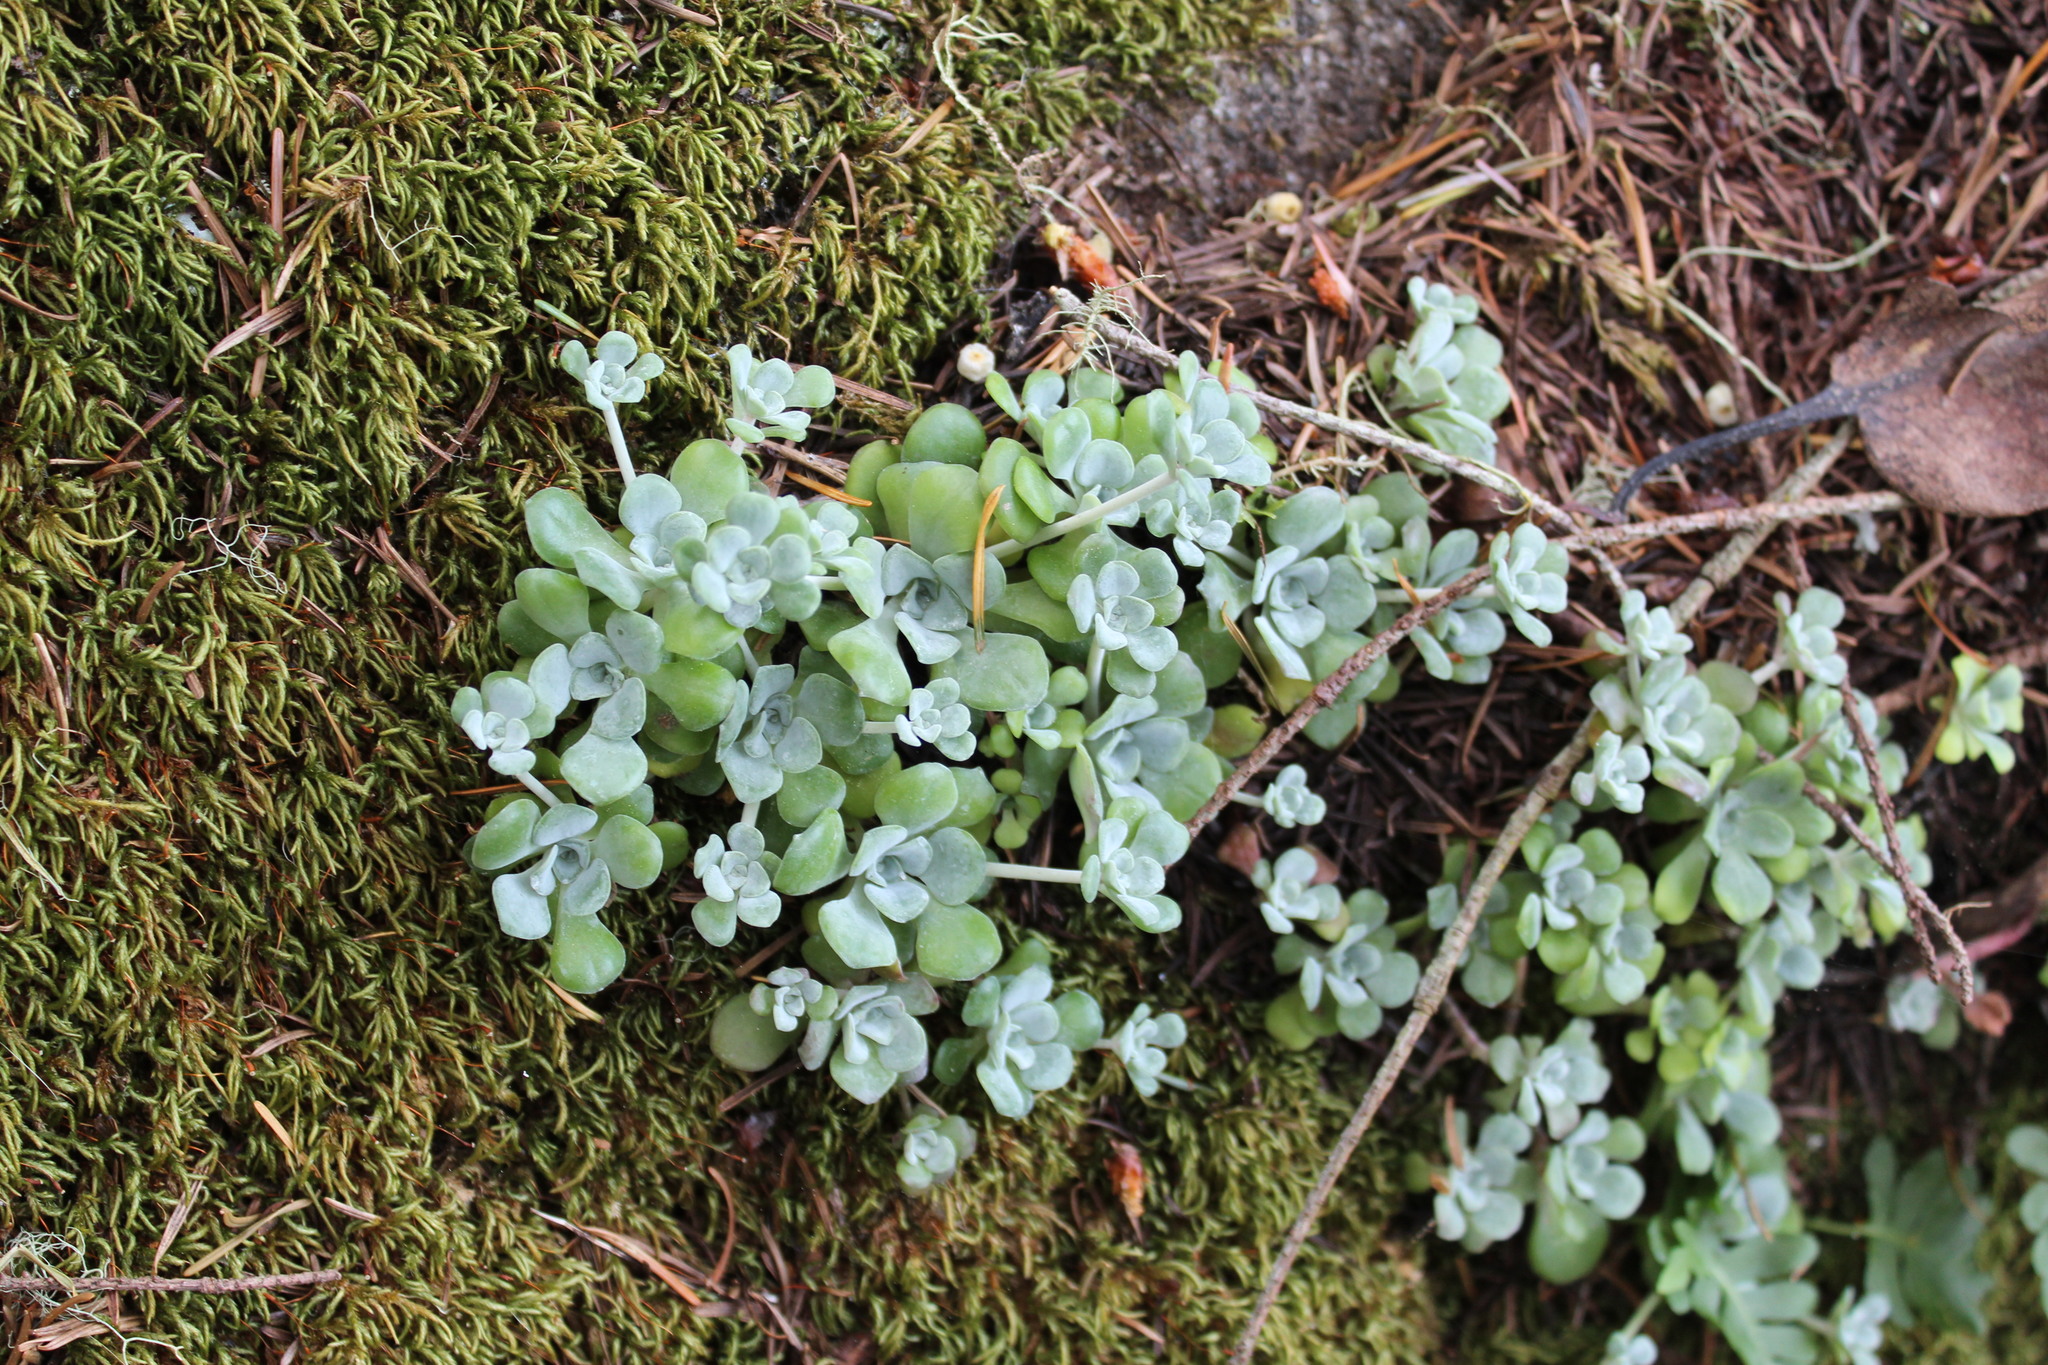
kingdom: Plantae
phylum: Tracheophyta
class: Magnoliopsida
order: Saxifragales
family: Crassulaceae
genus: Sedum
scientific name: Sedum spathulifolium
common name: Colorado stonecrop
